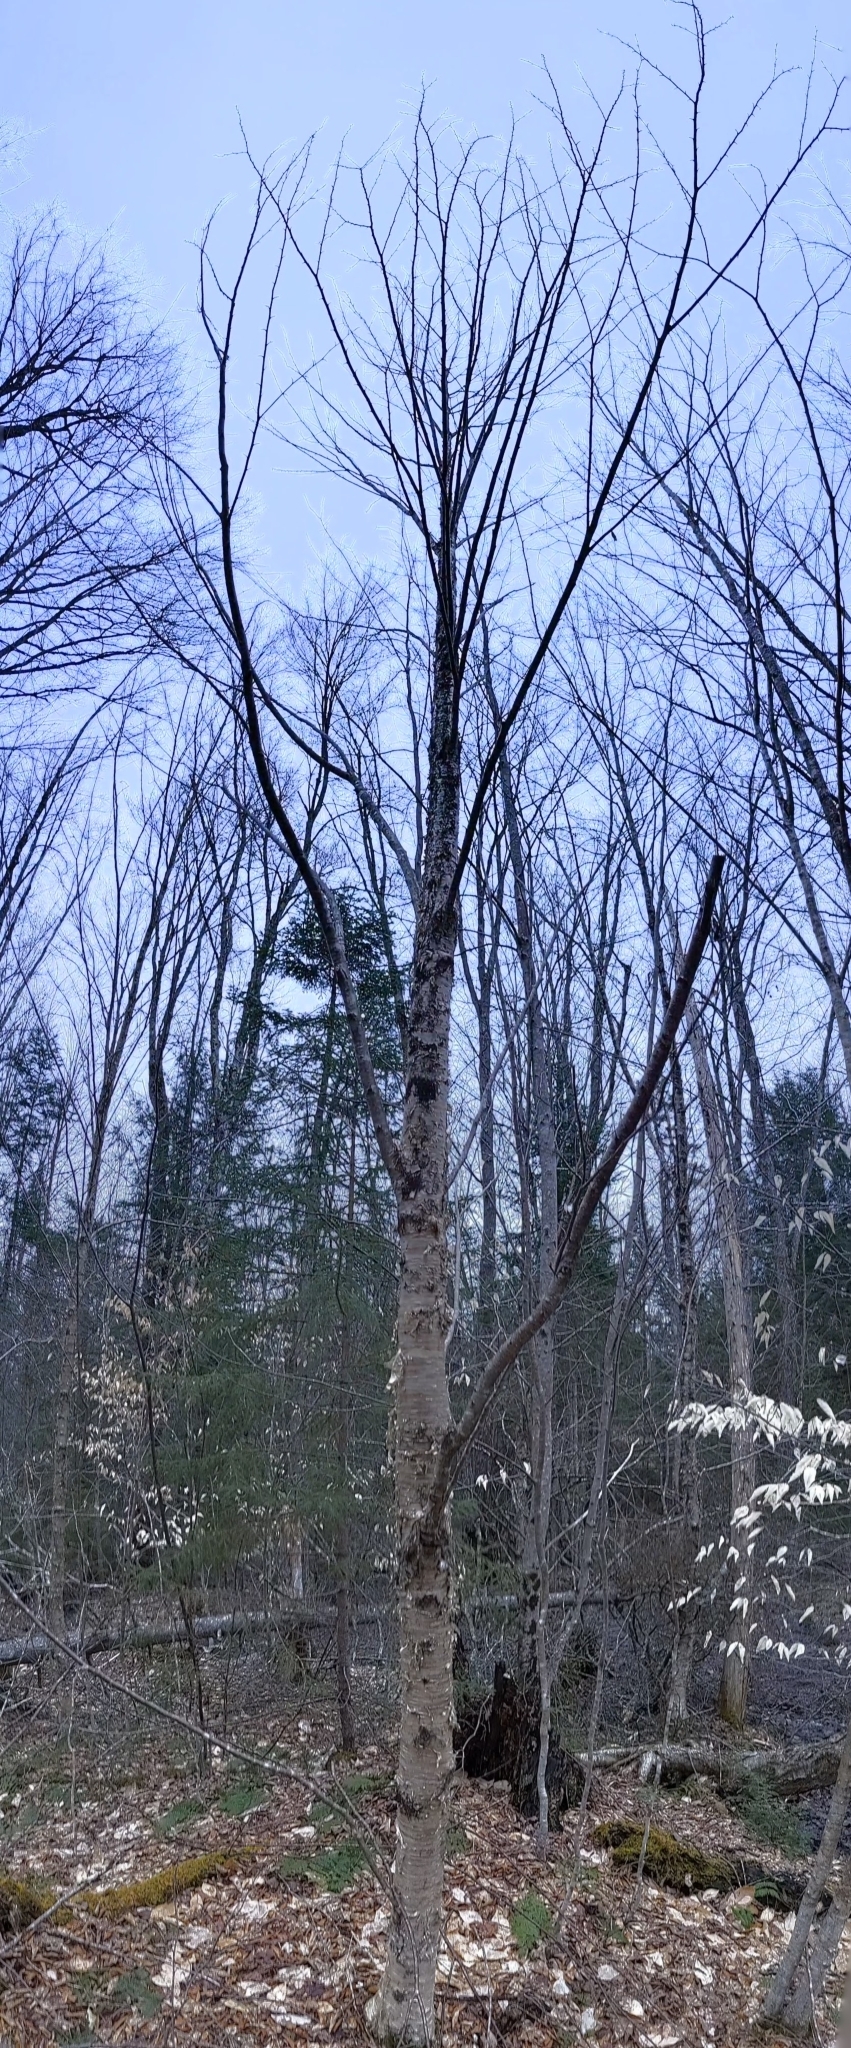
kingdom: Plantae
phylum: Tracheophyta
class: Magnoliopsida
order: Fagales
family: Betulaceae
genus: Betula
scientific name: Betula alleghaniensis
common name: Yellow birch
